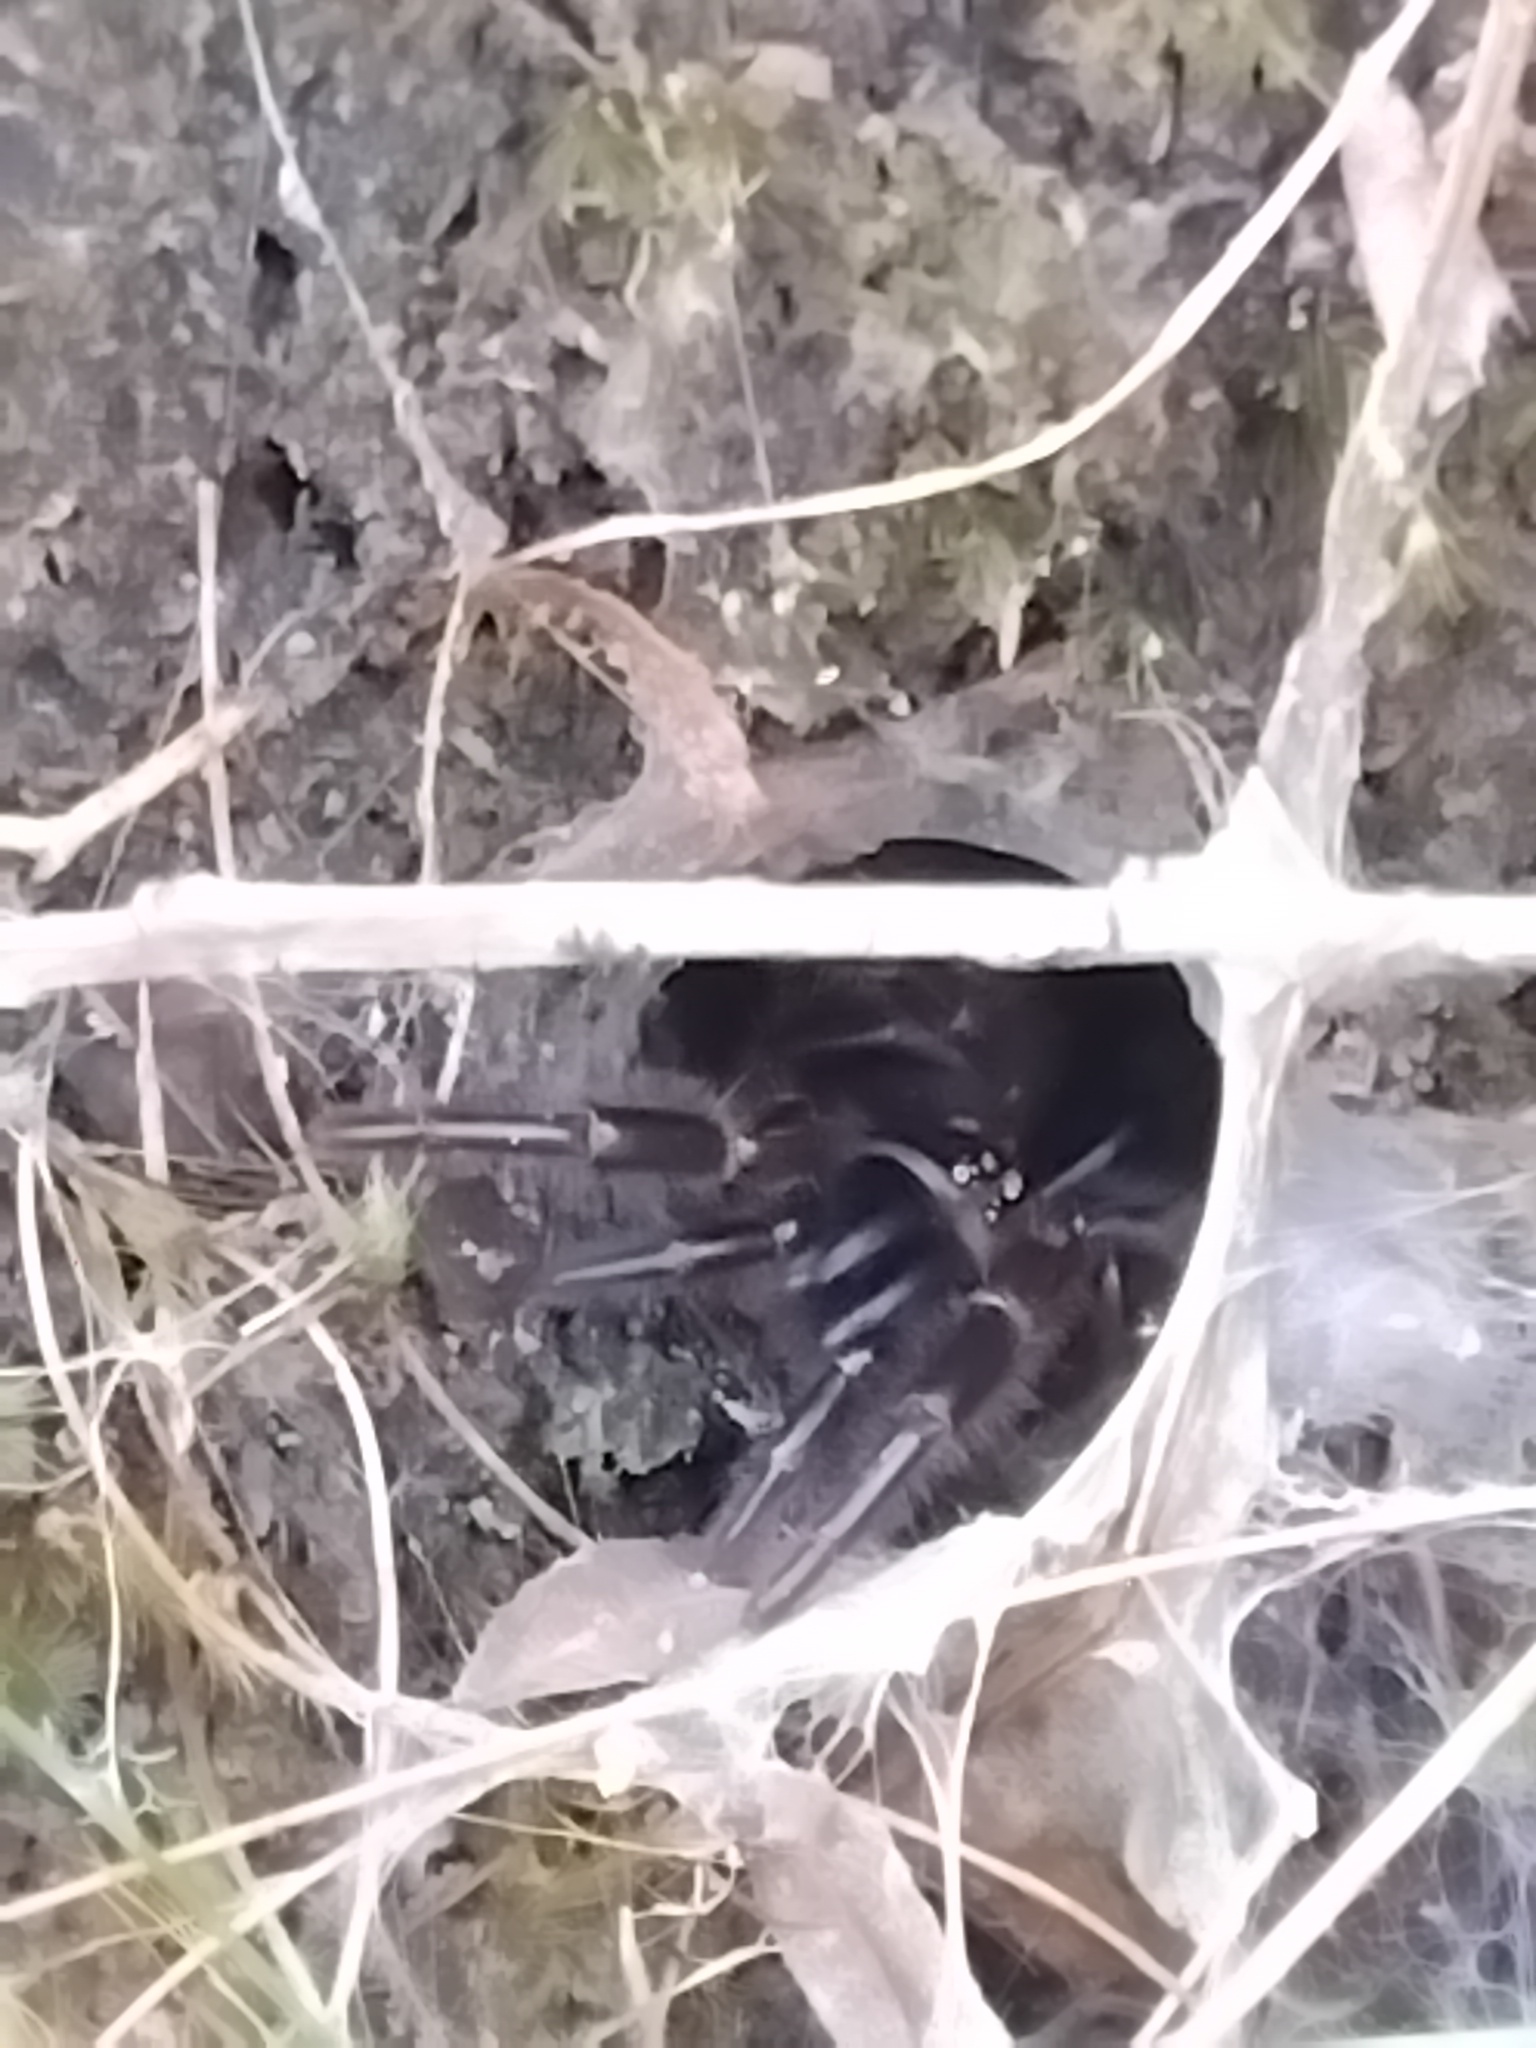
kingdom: Animalia
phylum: Arthropoda
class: Arachnida
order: Araneae
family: Atracidae
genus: Atrax
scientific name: Atrax robustus
